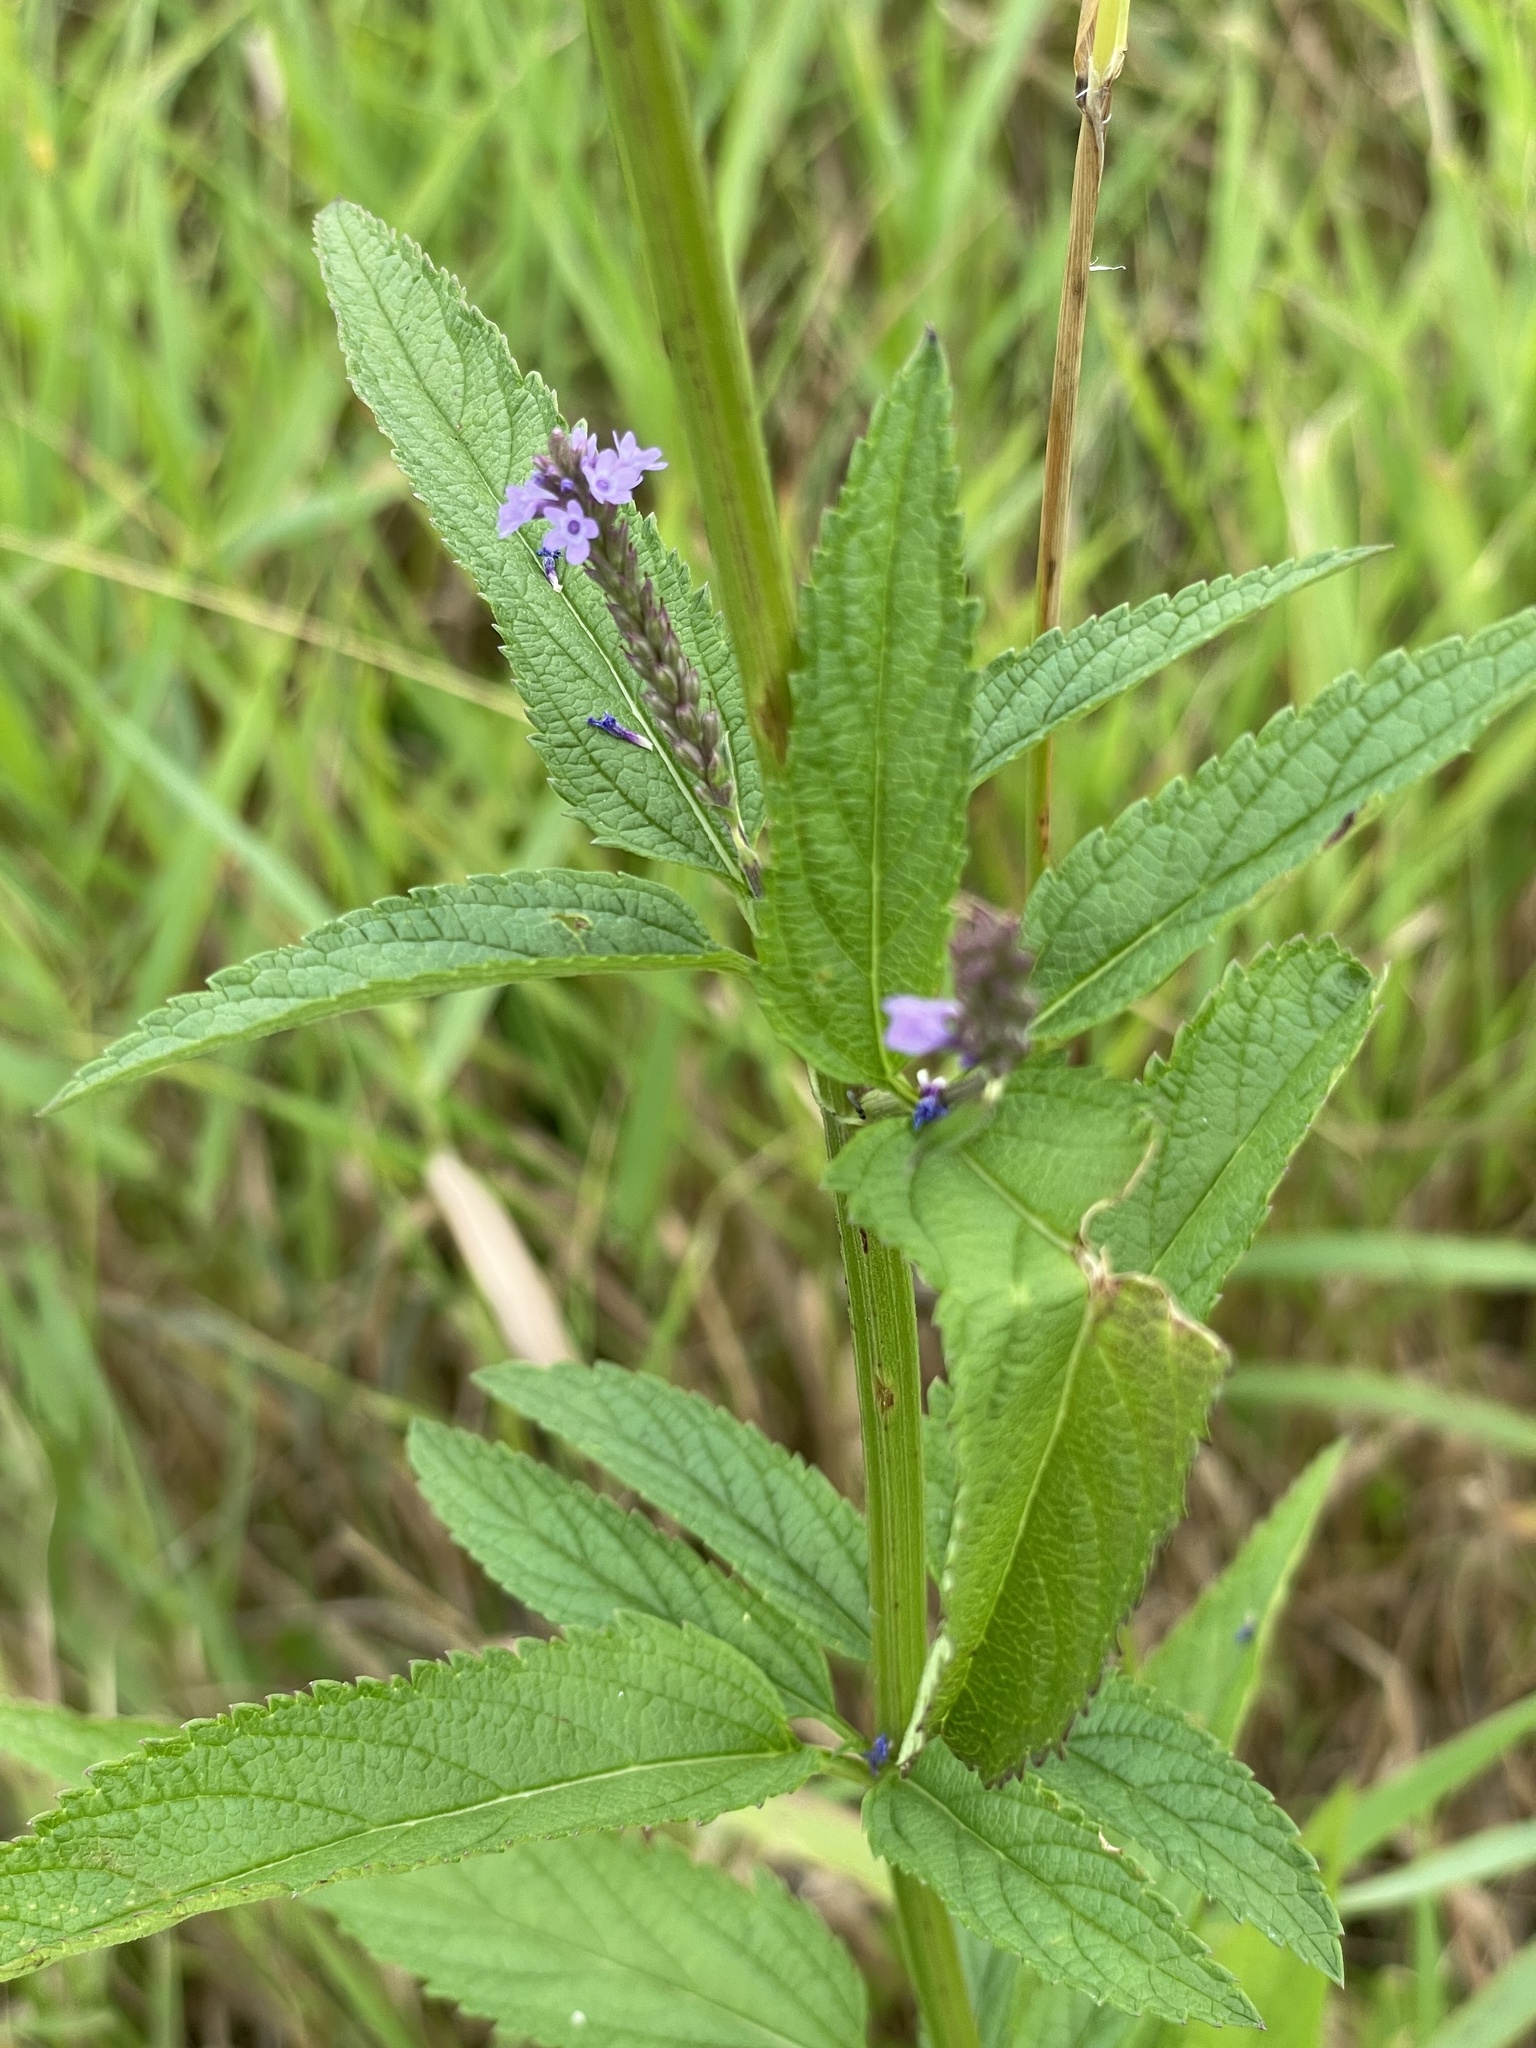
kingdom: Plantae
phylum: Tracheophyta
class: Magnoliopsida
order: Lamiales
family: Verbenaceae
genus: Verbena
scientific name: Verbena hastata
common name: American blue vervain
